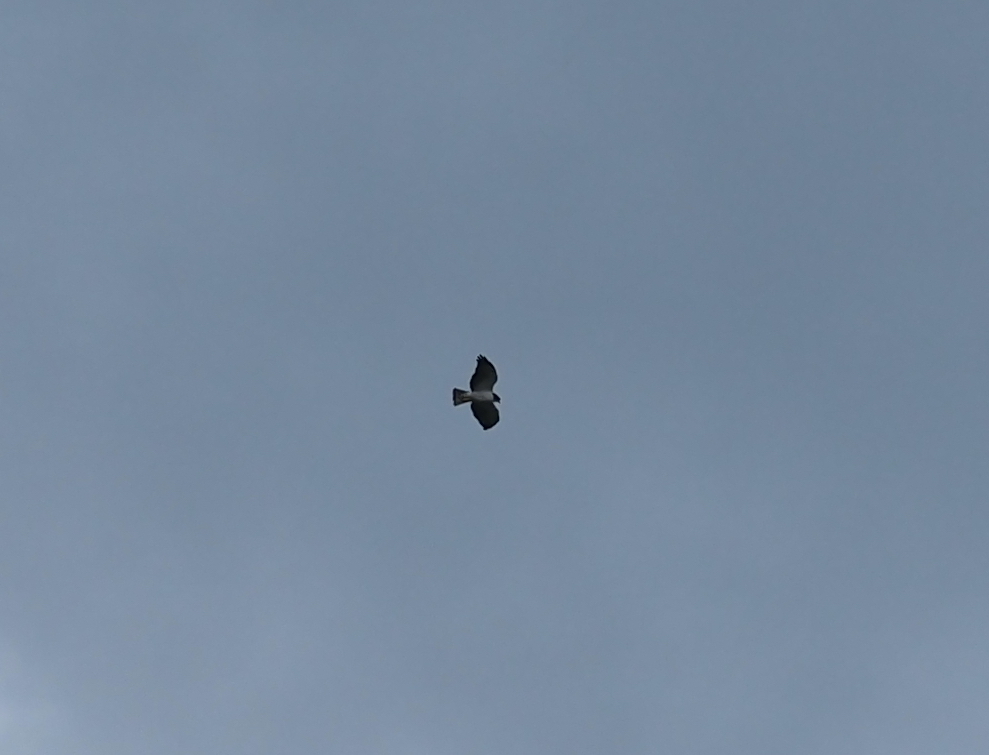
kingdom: Animalia
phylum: Chordata
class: Aves
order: Accipitriformes
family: Accipitridae
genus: Buteo
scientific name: Buteo brachyurus
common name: Short-tailed hawk
